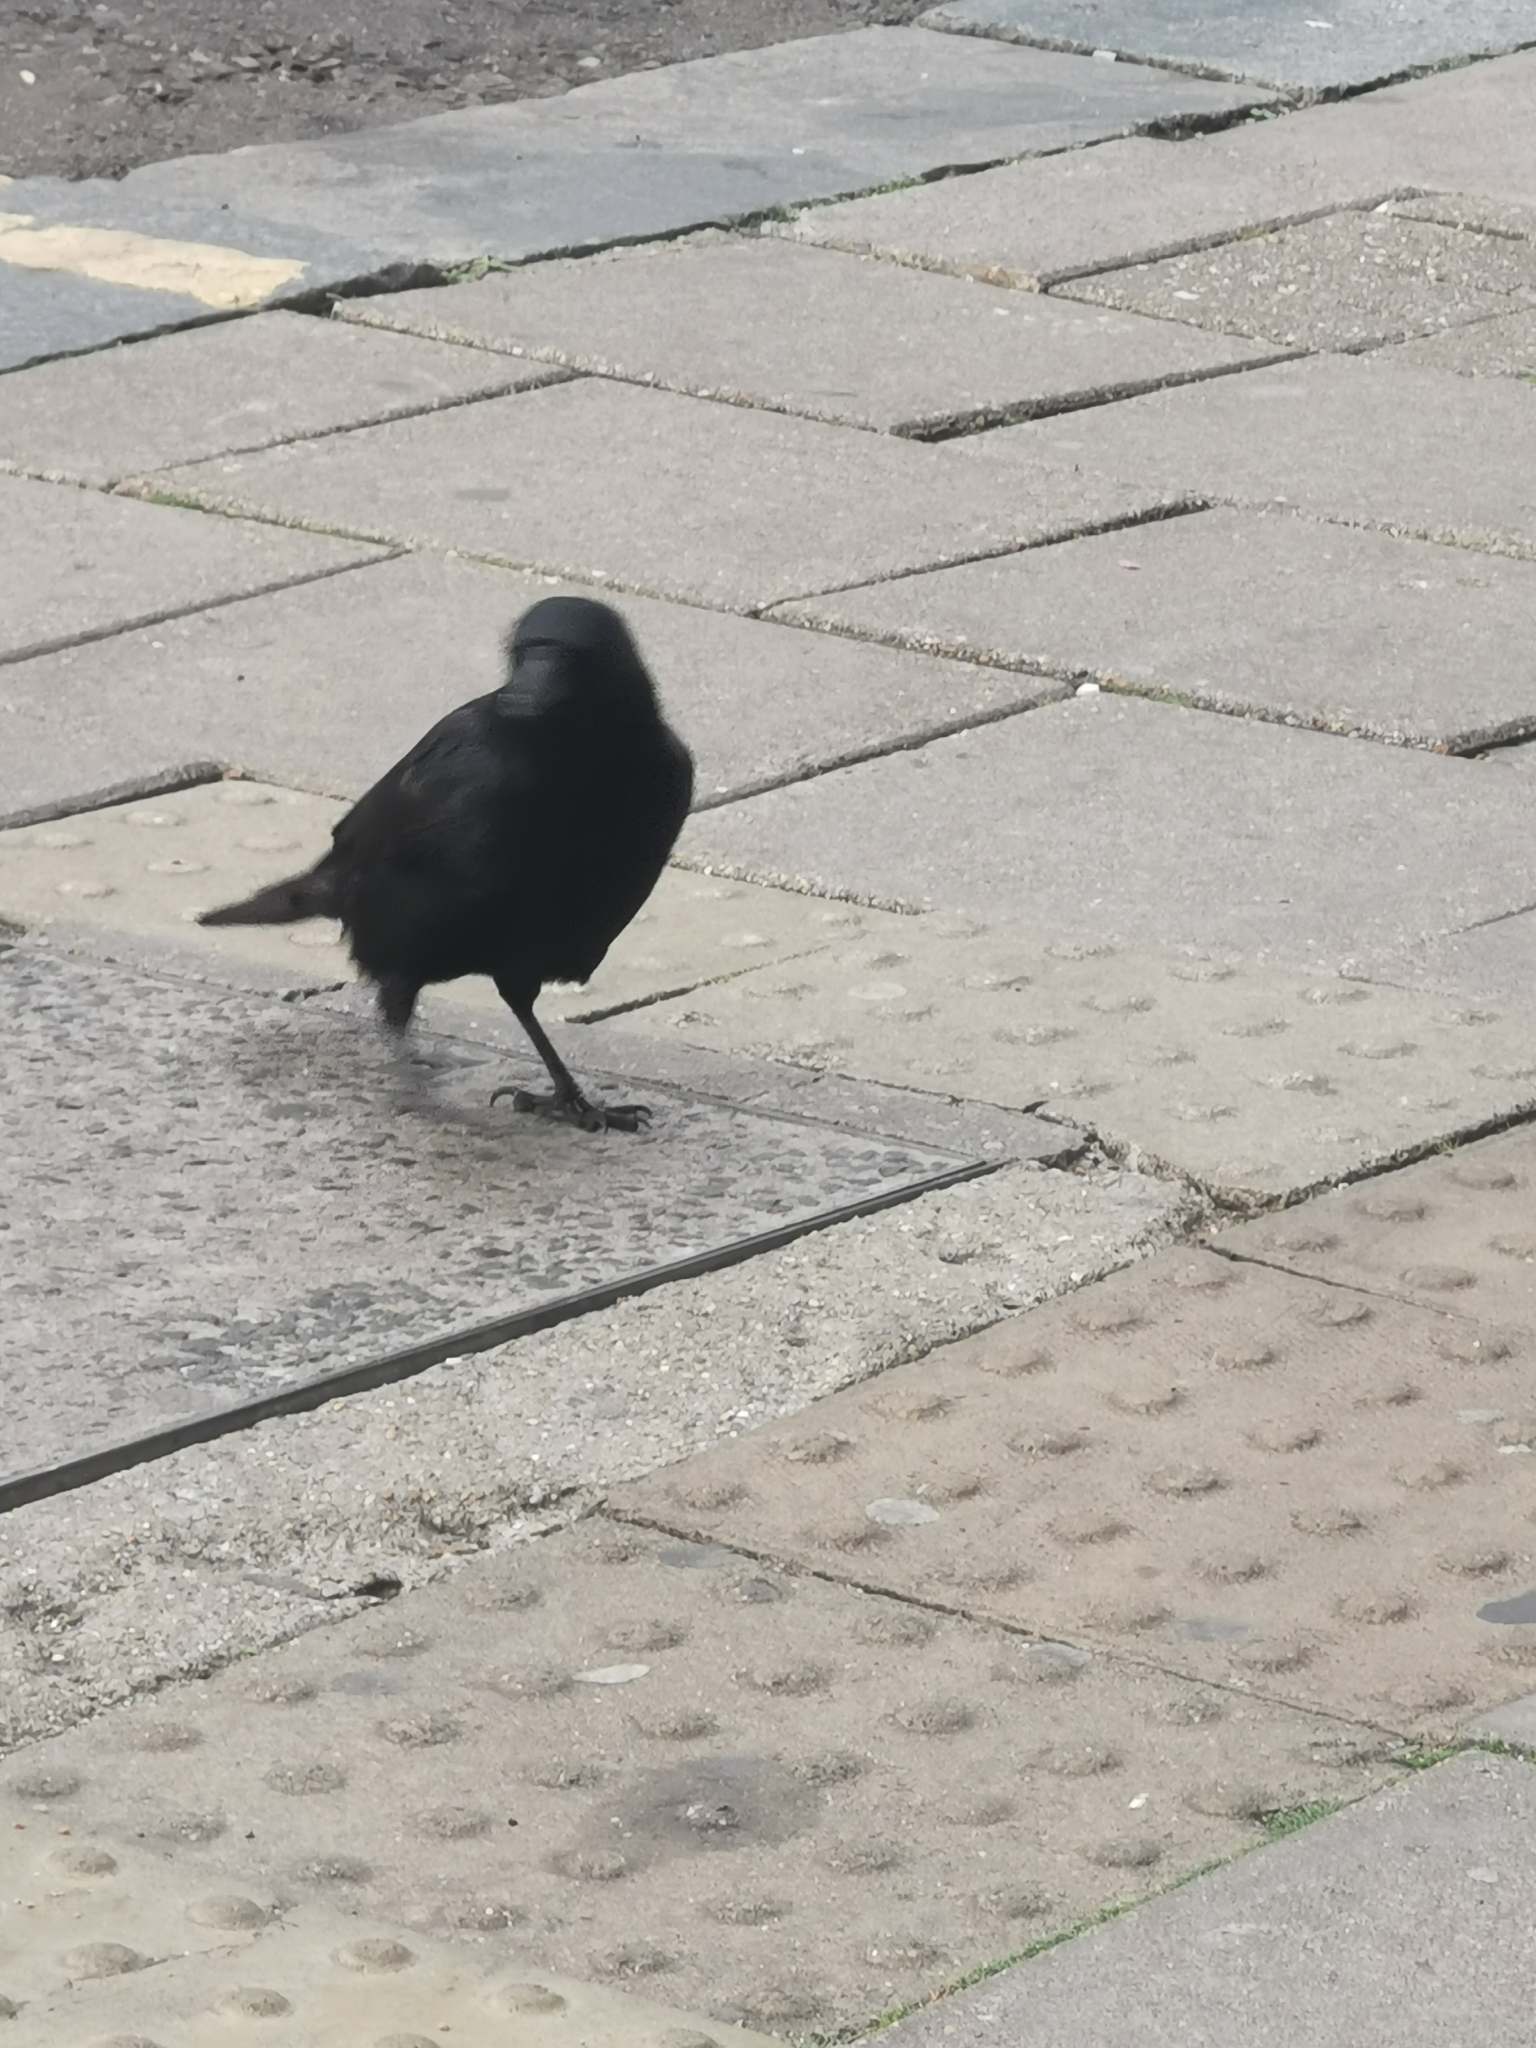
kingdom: Animalia
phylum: Chordata
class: Aves
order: Passeriformes
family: Corvidae
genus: Corvus
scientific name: Corvus corone
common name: Carrion crow
